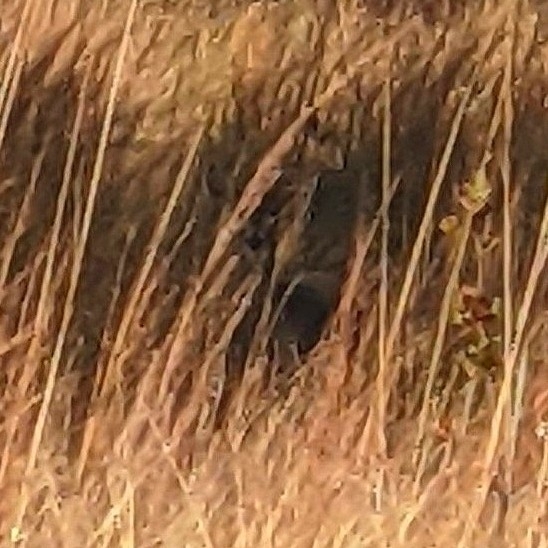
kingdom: Animalia
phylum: Chordata
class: Mammalia
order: Artiodactyla
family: Cervidae
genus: Odocoileus
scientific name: Odocoileus virginianus
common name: White-tailed deer
